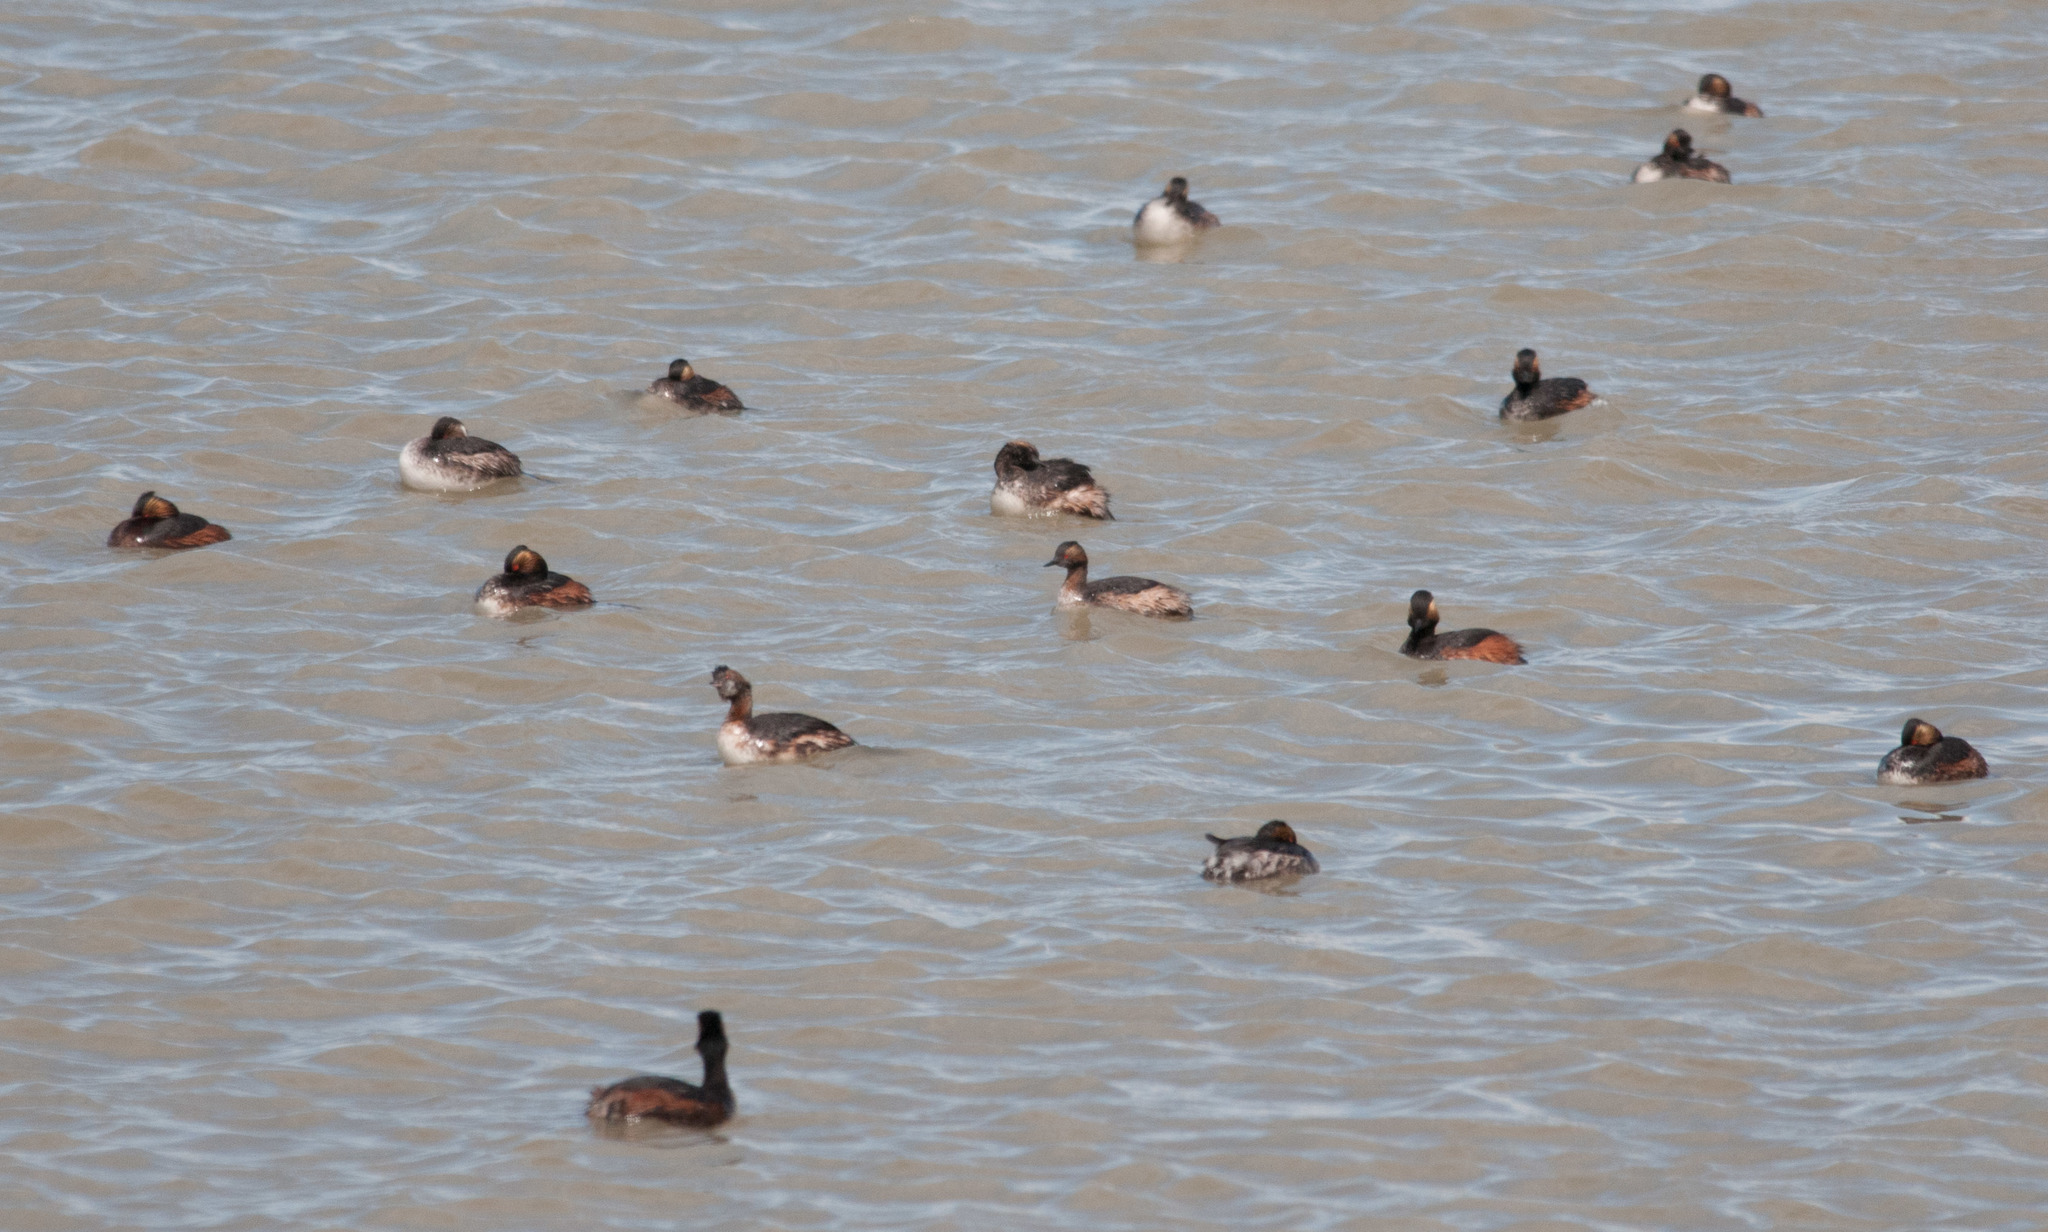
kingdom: Animalia
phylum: Chordata
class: Aves
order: Podicipediformes
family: Podicipedidae
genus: Podiceps
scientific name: Podiceps nigricollis
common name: Black-necked grebe
